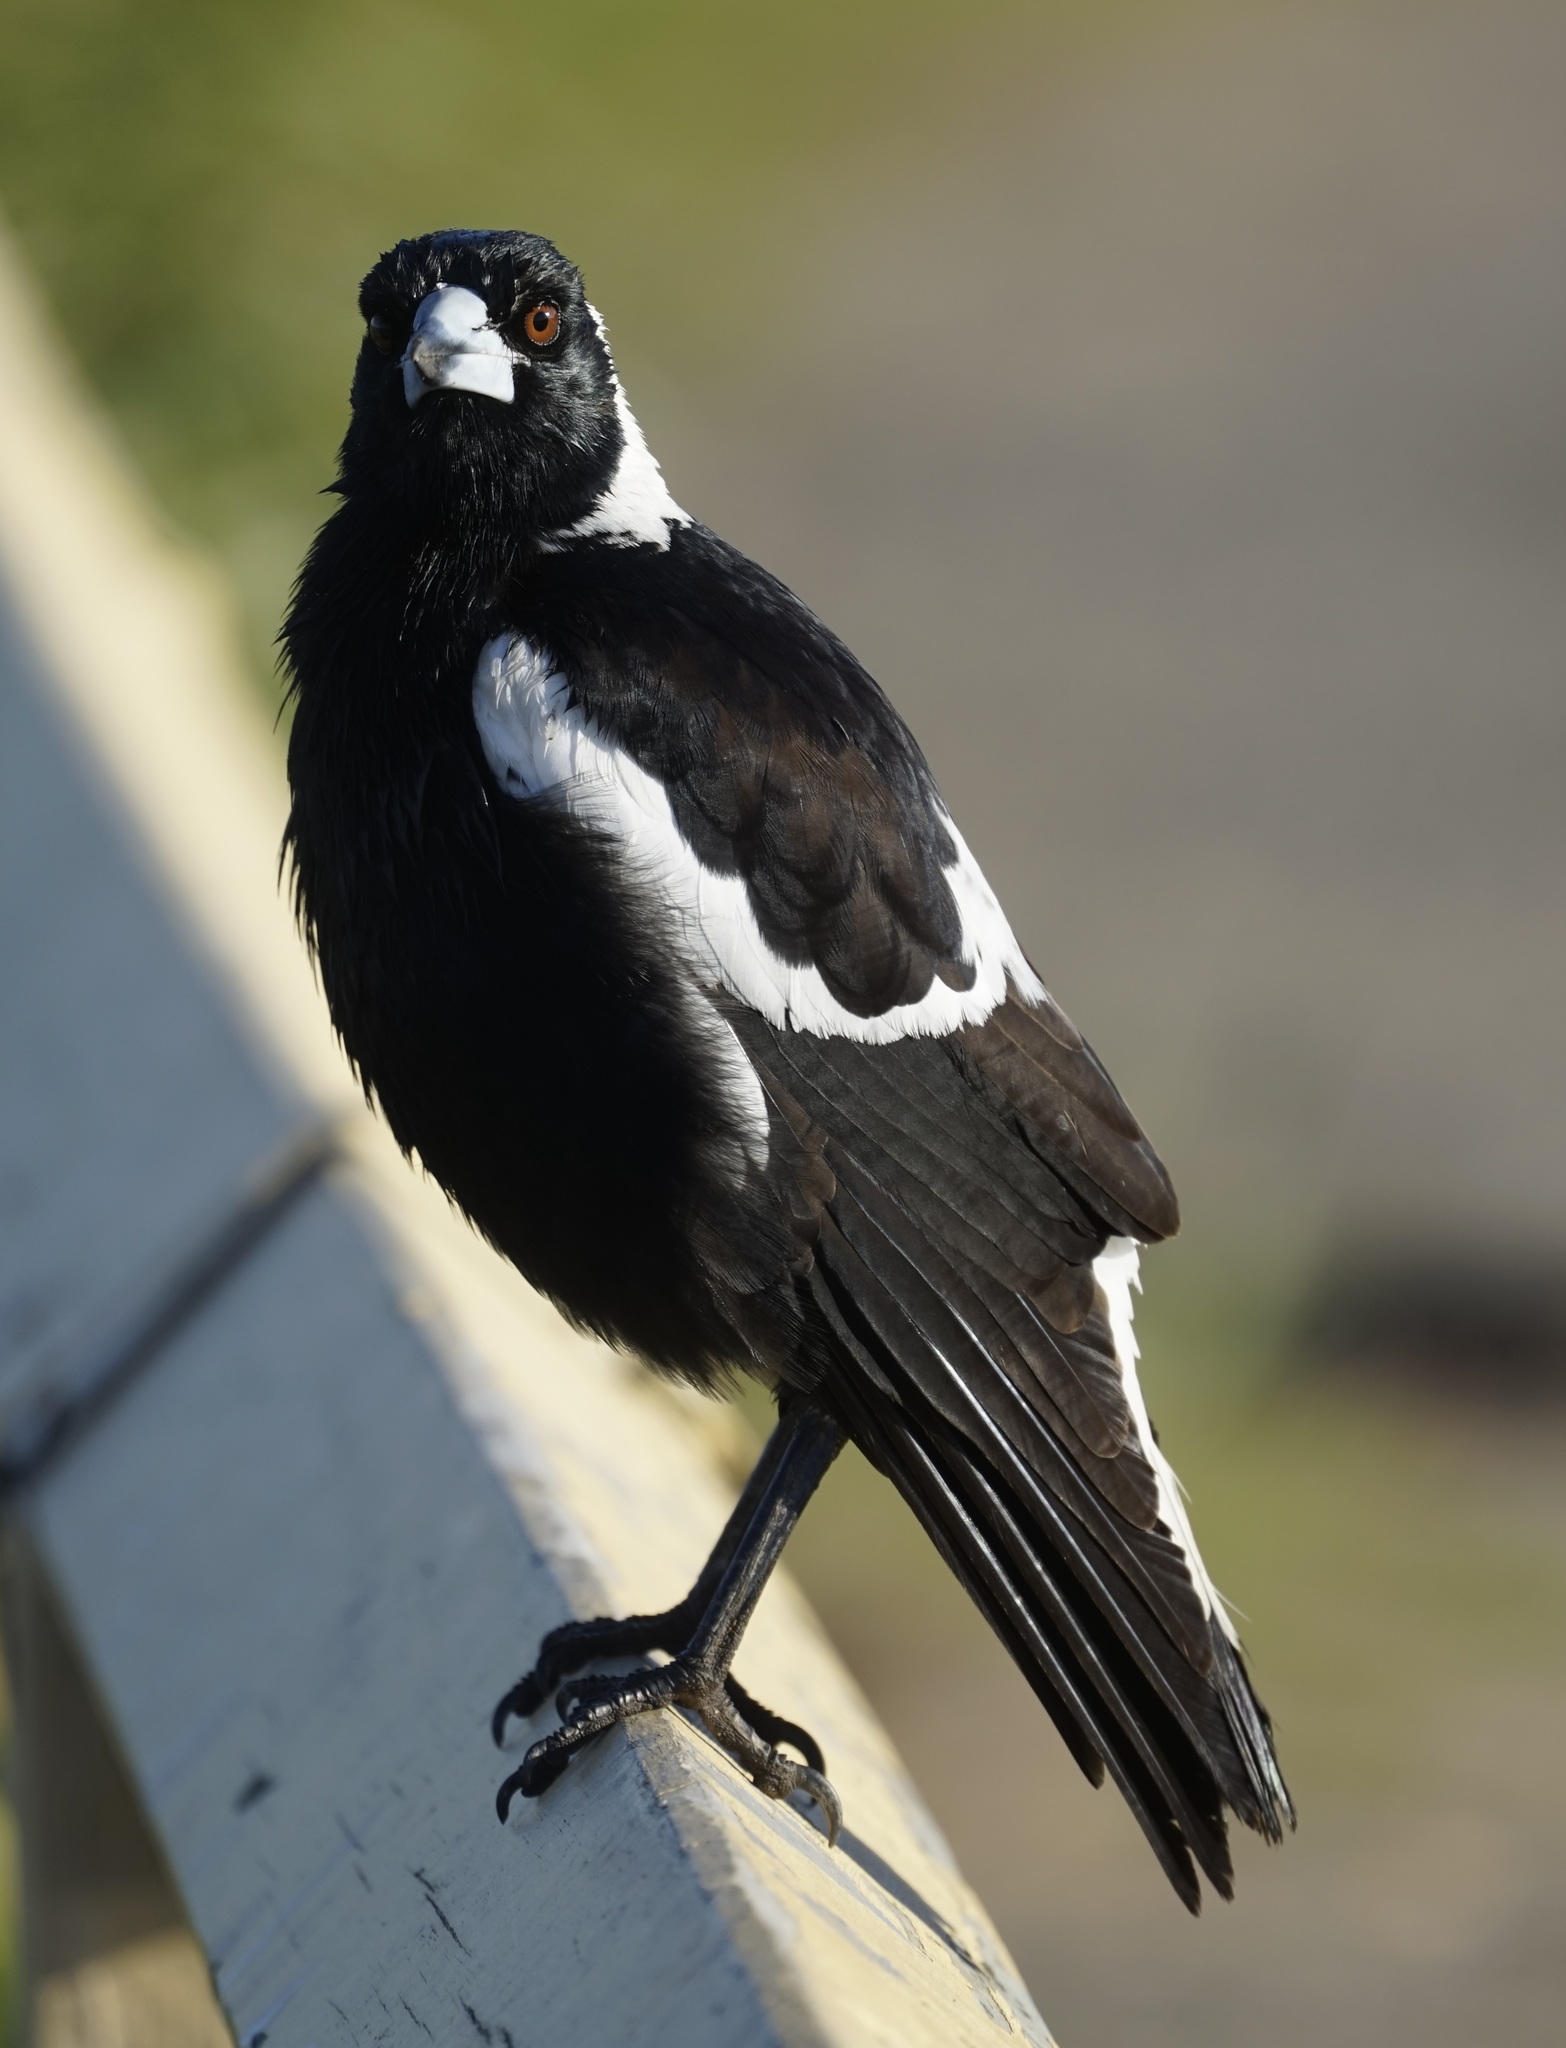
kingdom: Animalia
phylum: Chordata
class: Aves
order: Passeriformes
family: Cracticidae
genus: Gymnorhina
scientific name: Gymnorhina tibicen
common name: Australian magpie
